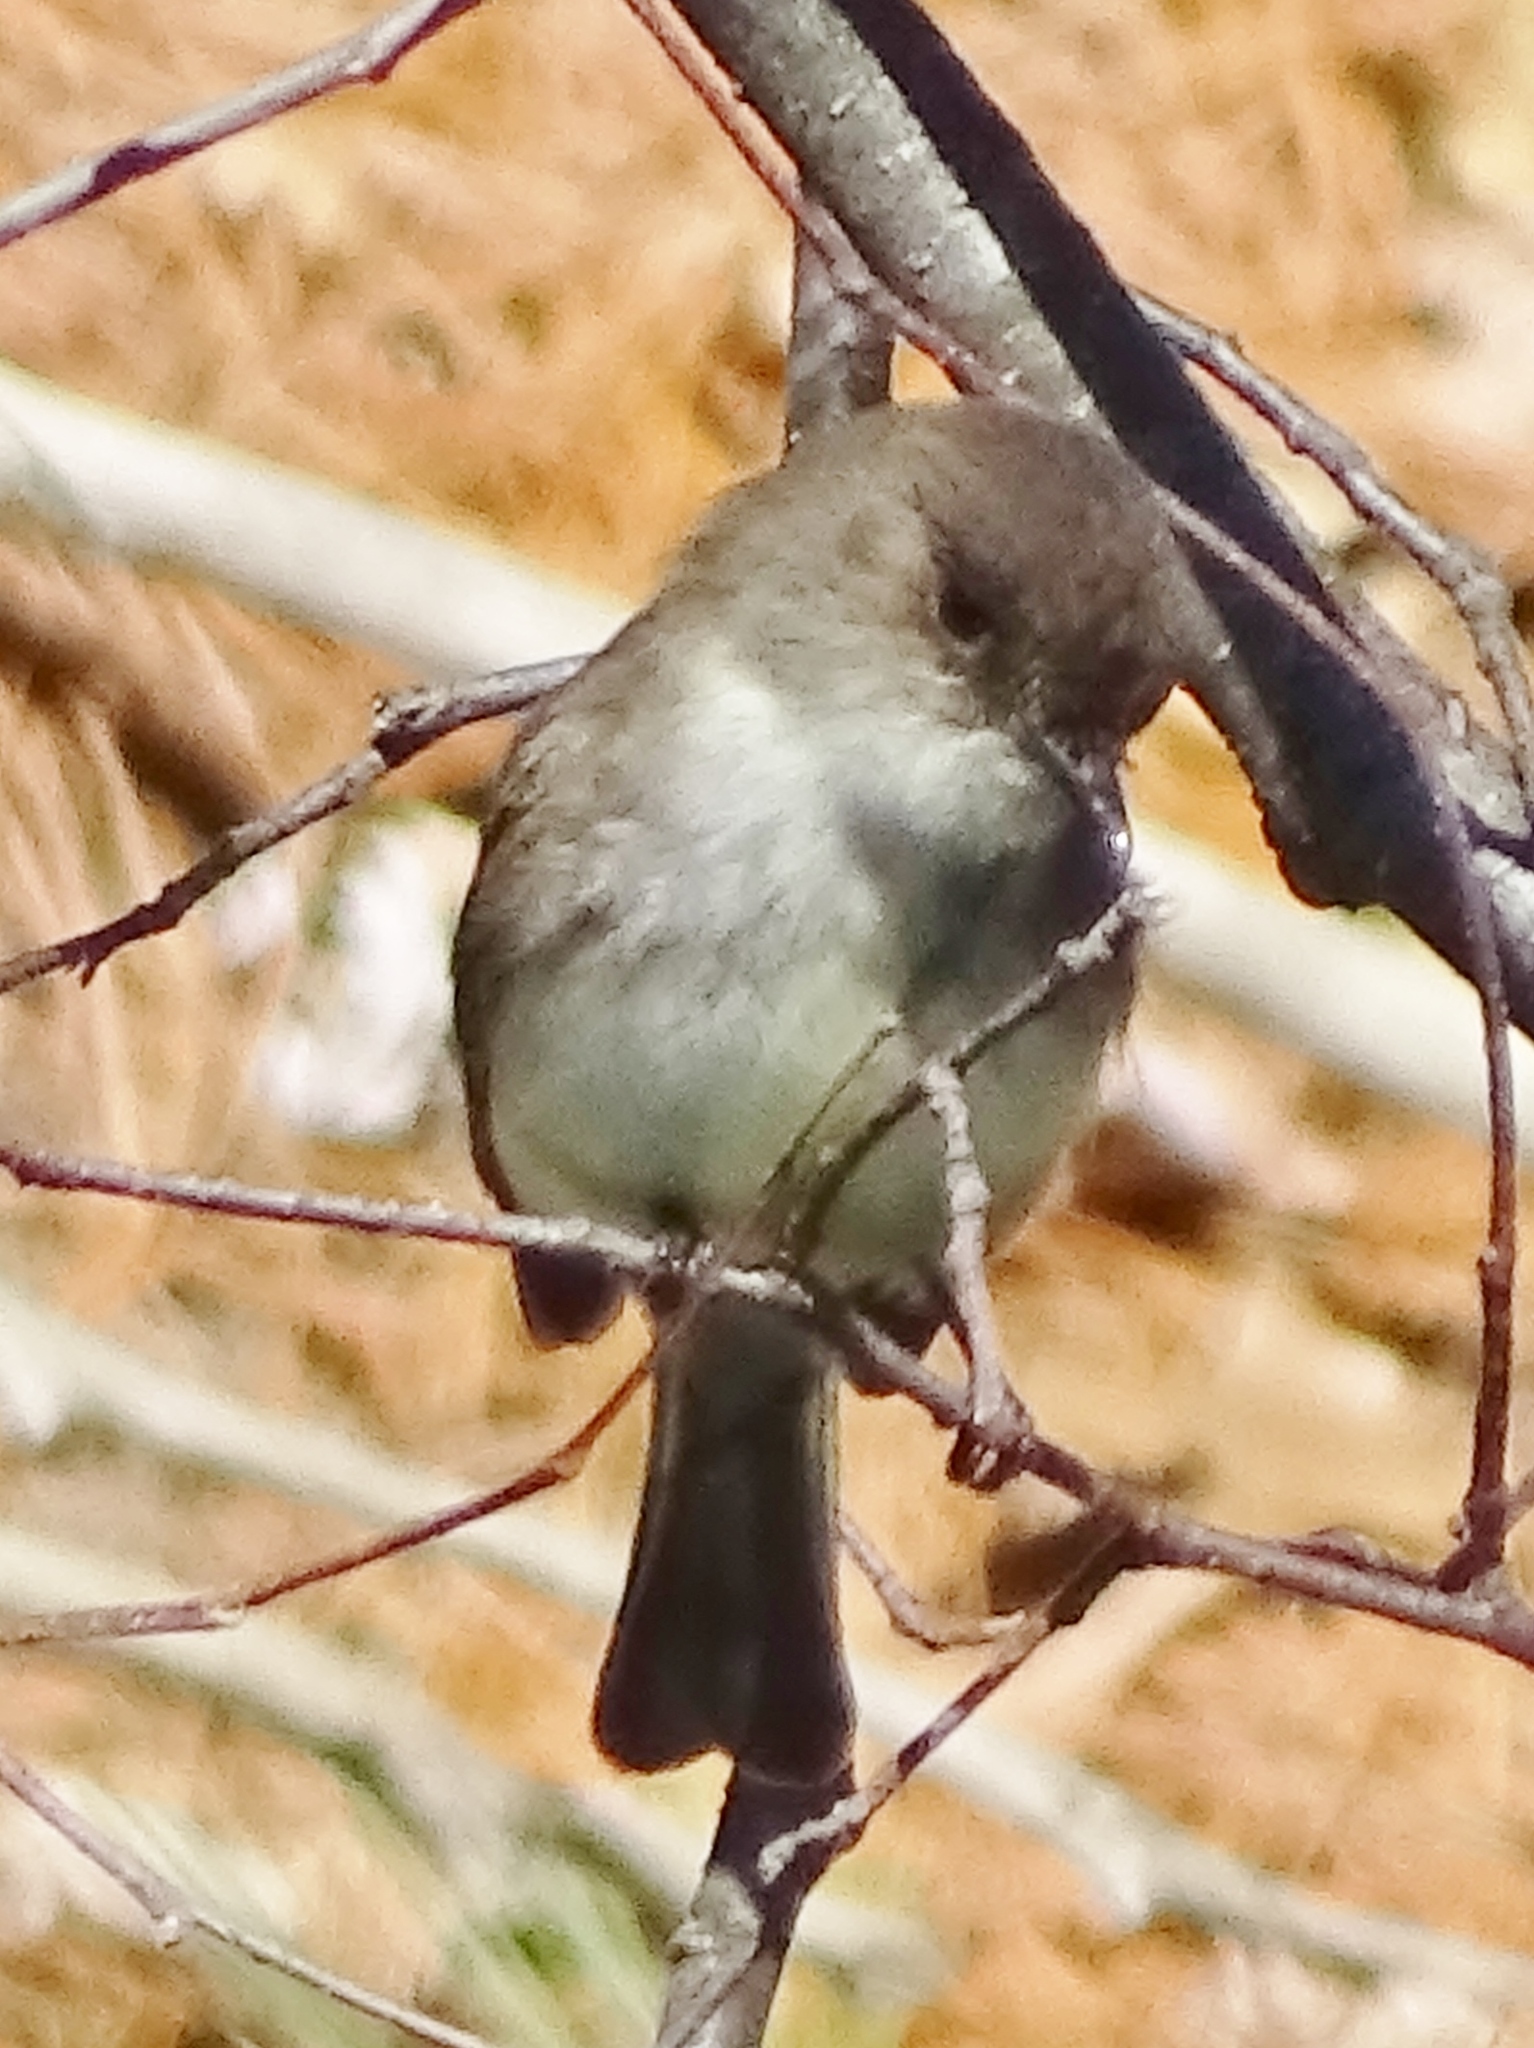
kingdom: Animalia
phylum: Chordata
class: Aves
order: Passeriformes
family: Tyrannidae
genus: Sayornis
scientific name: Sayornis phoebe
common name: Eastern phoebe
